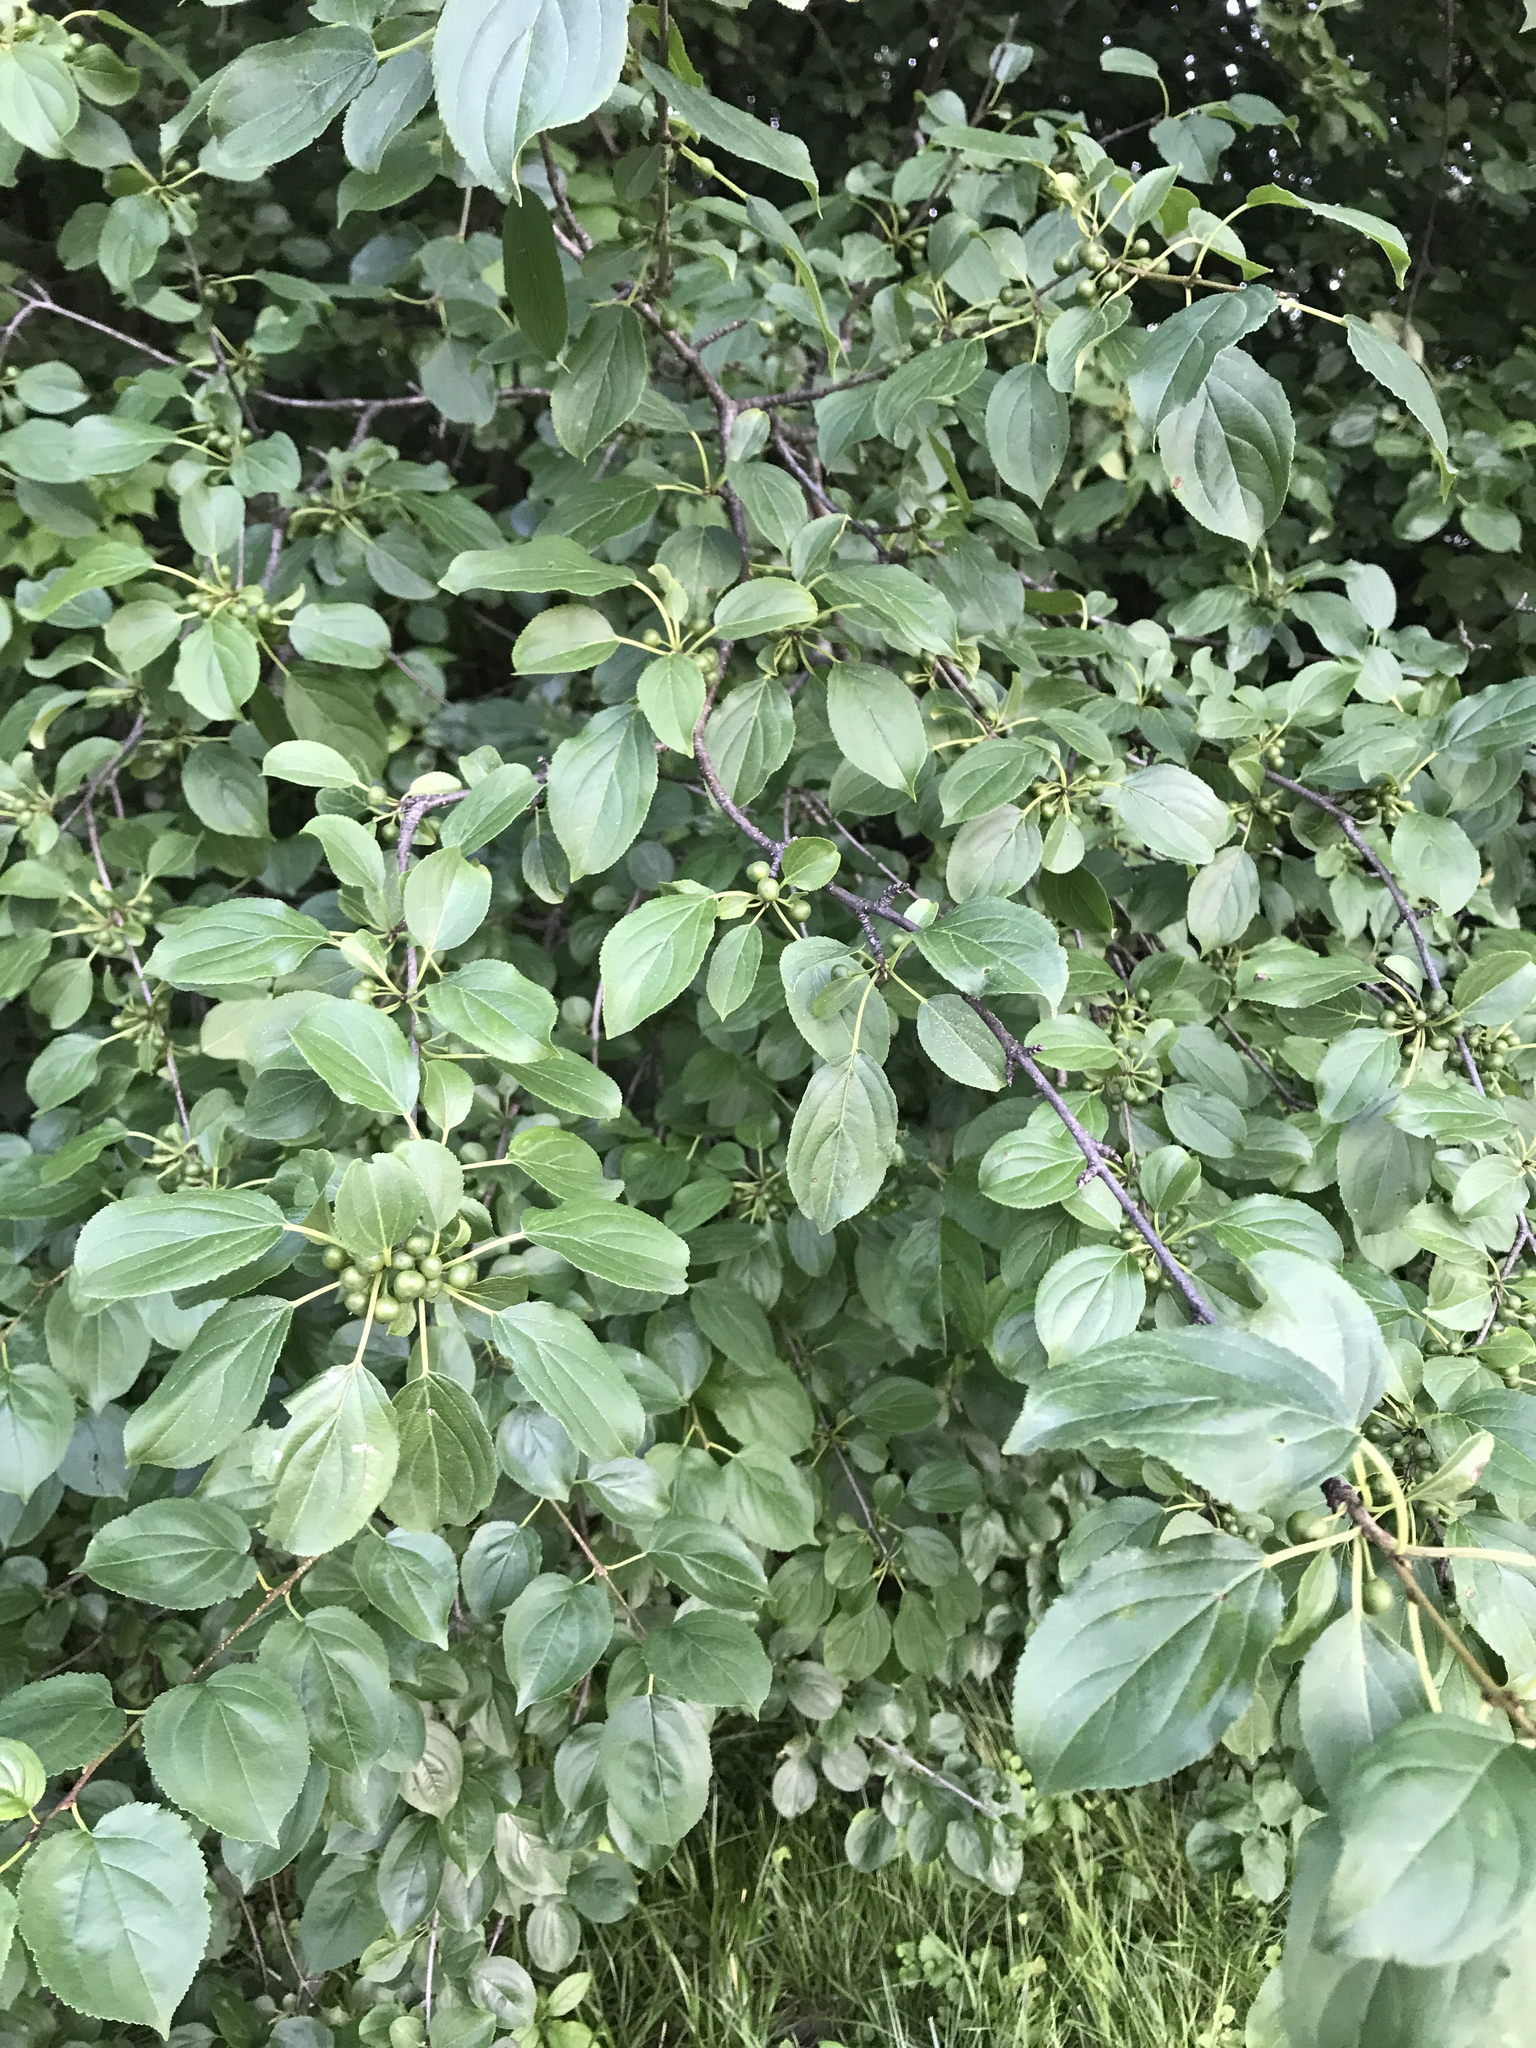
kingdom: Plantae
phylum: Tracheophyta
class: Magnoliopsida
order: Rosales
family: Rhamnaceae
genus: Rhamnus
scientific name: Rhamnus cathartica
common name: Common buckthorn
